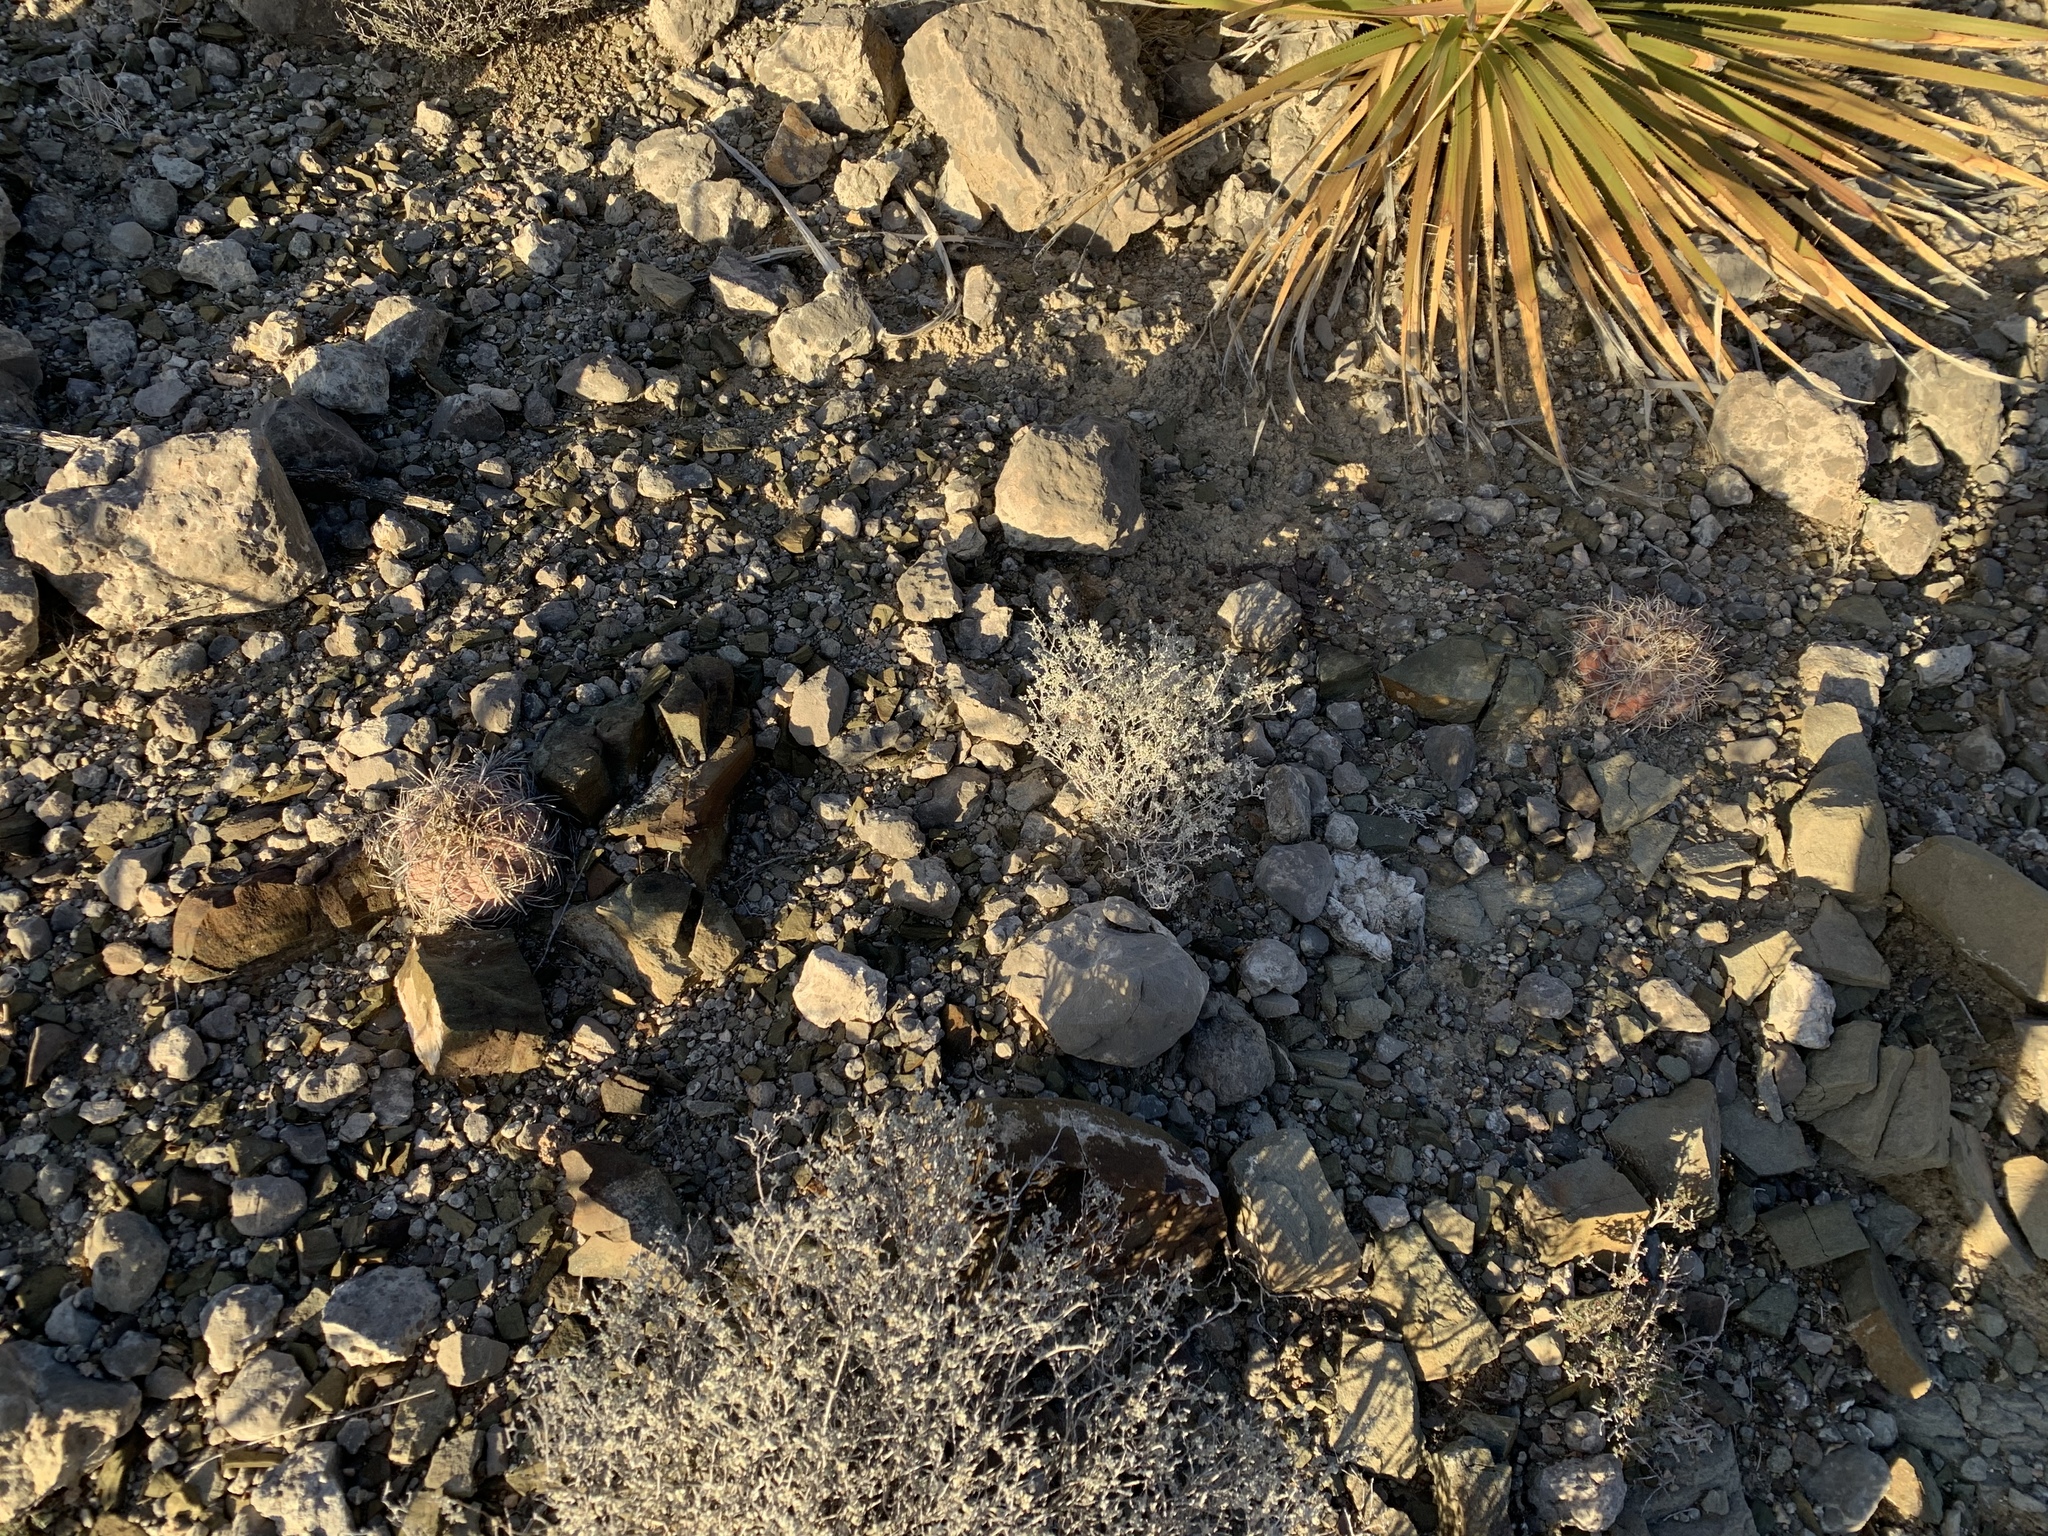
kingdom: Plantae
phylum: Tracheophyta
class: Magnoliopsida
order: Caryophyllales
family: Cactaceae
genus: Echinocactus
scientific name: Echinocactus horizonthalonius
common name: Devilshead
